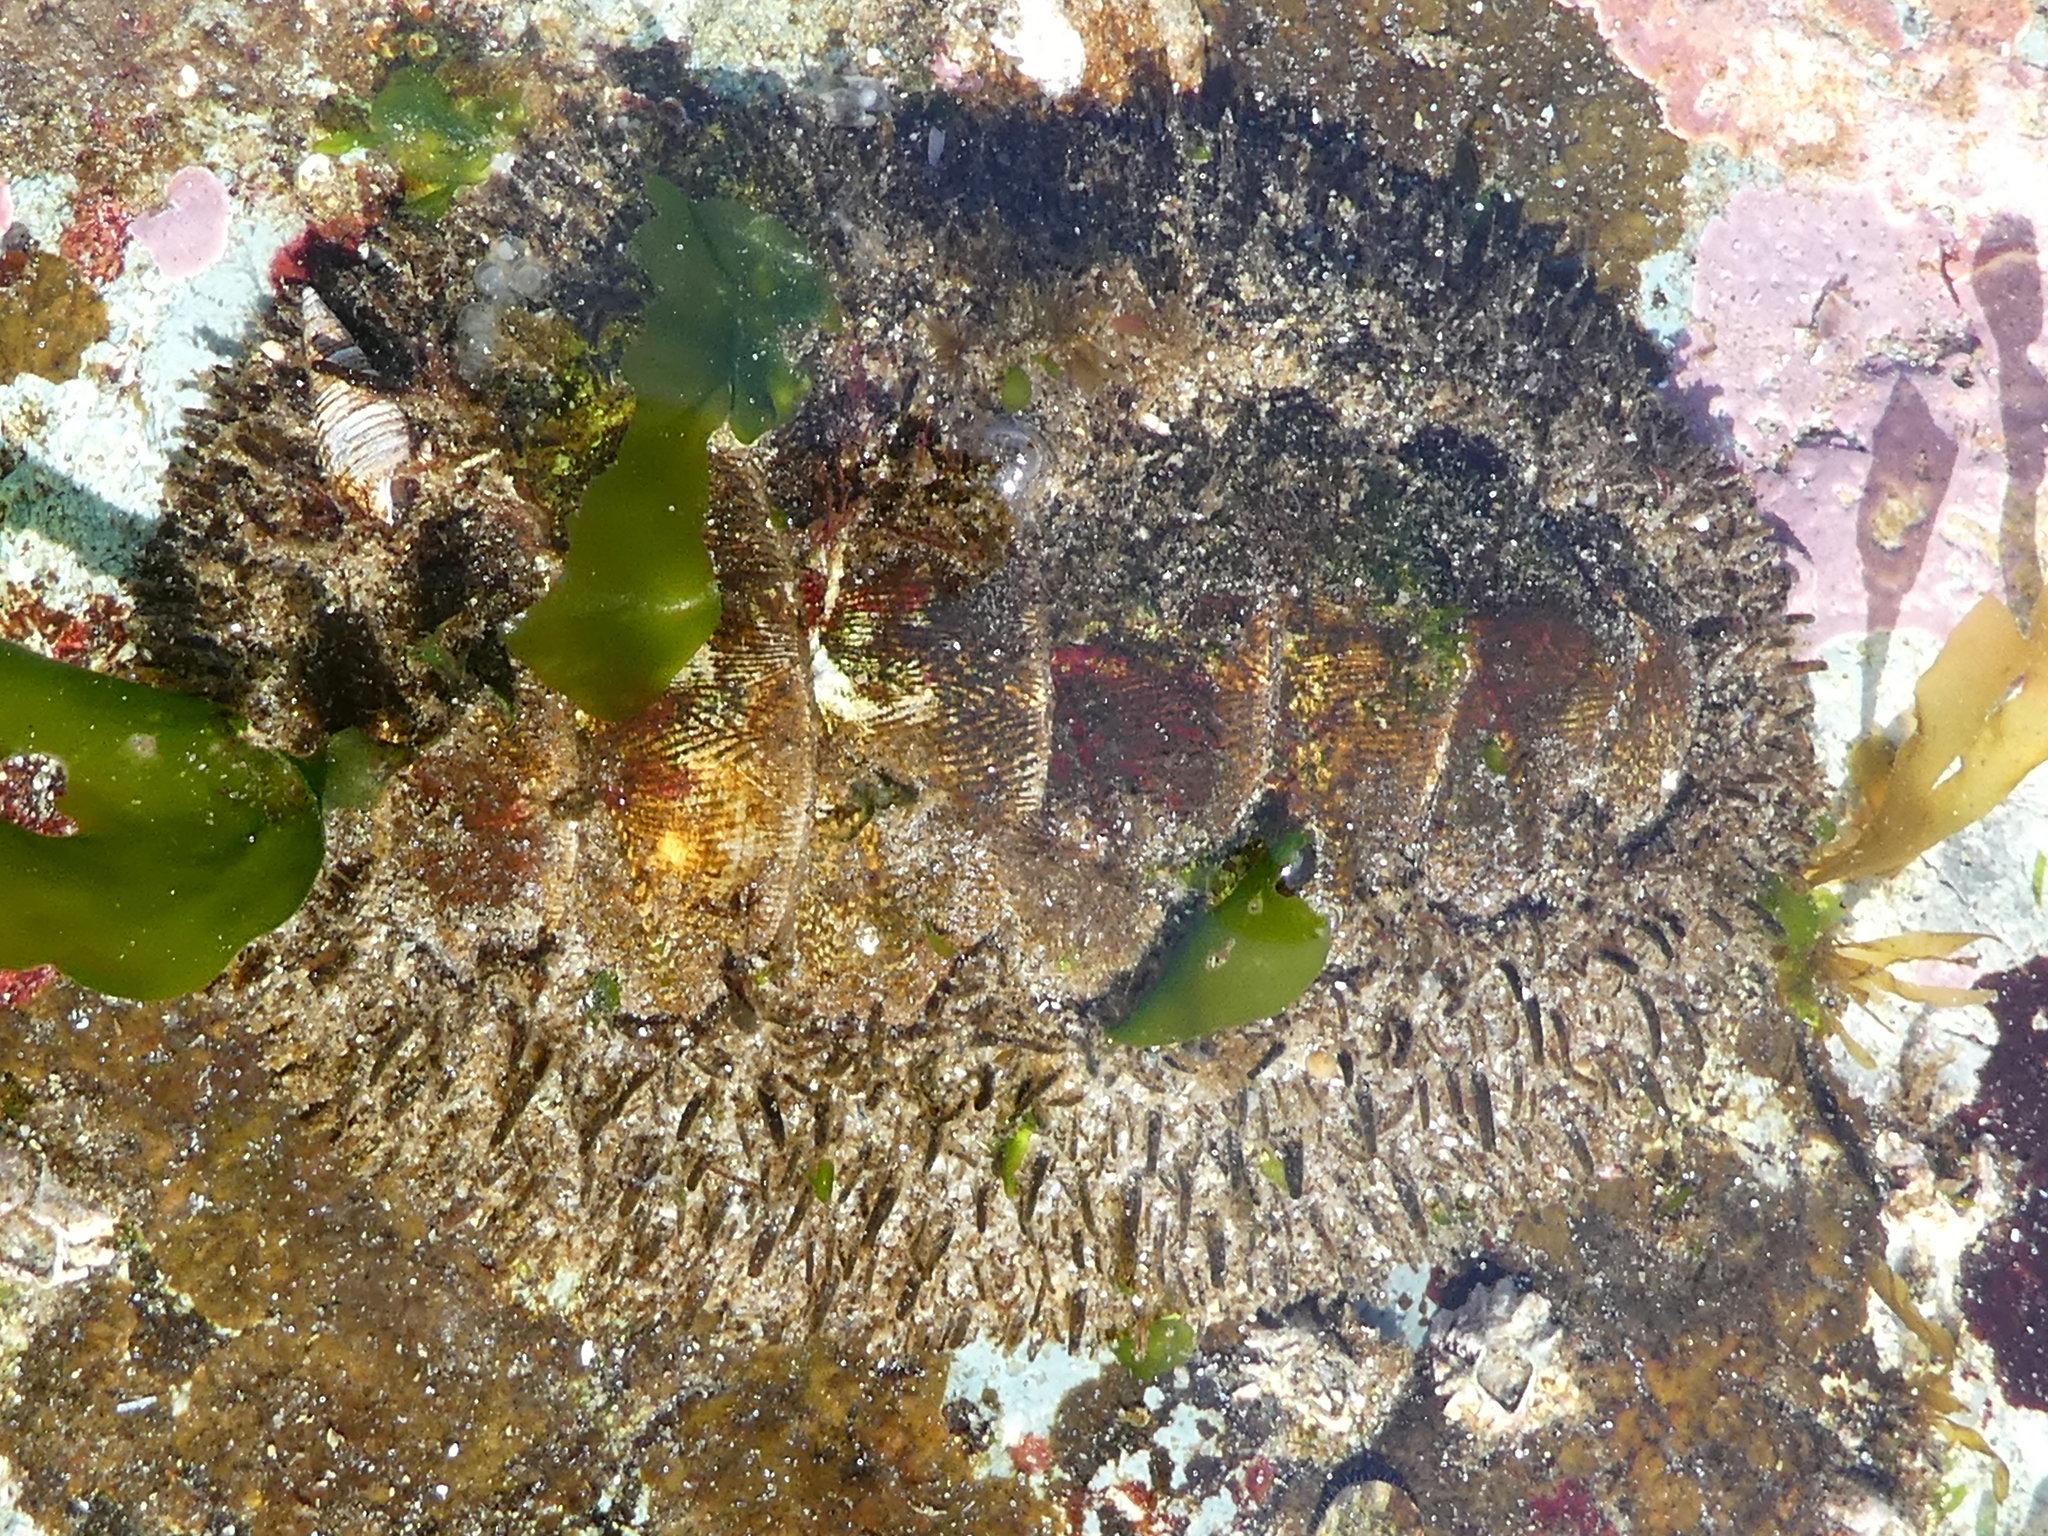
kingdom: Animalia
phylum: Mollusca
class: Polyplacophora
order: Chitonida
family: Mopaliidae
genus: Mopalia
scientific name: Mopalia muscosa
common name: Mossy chiton
